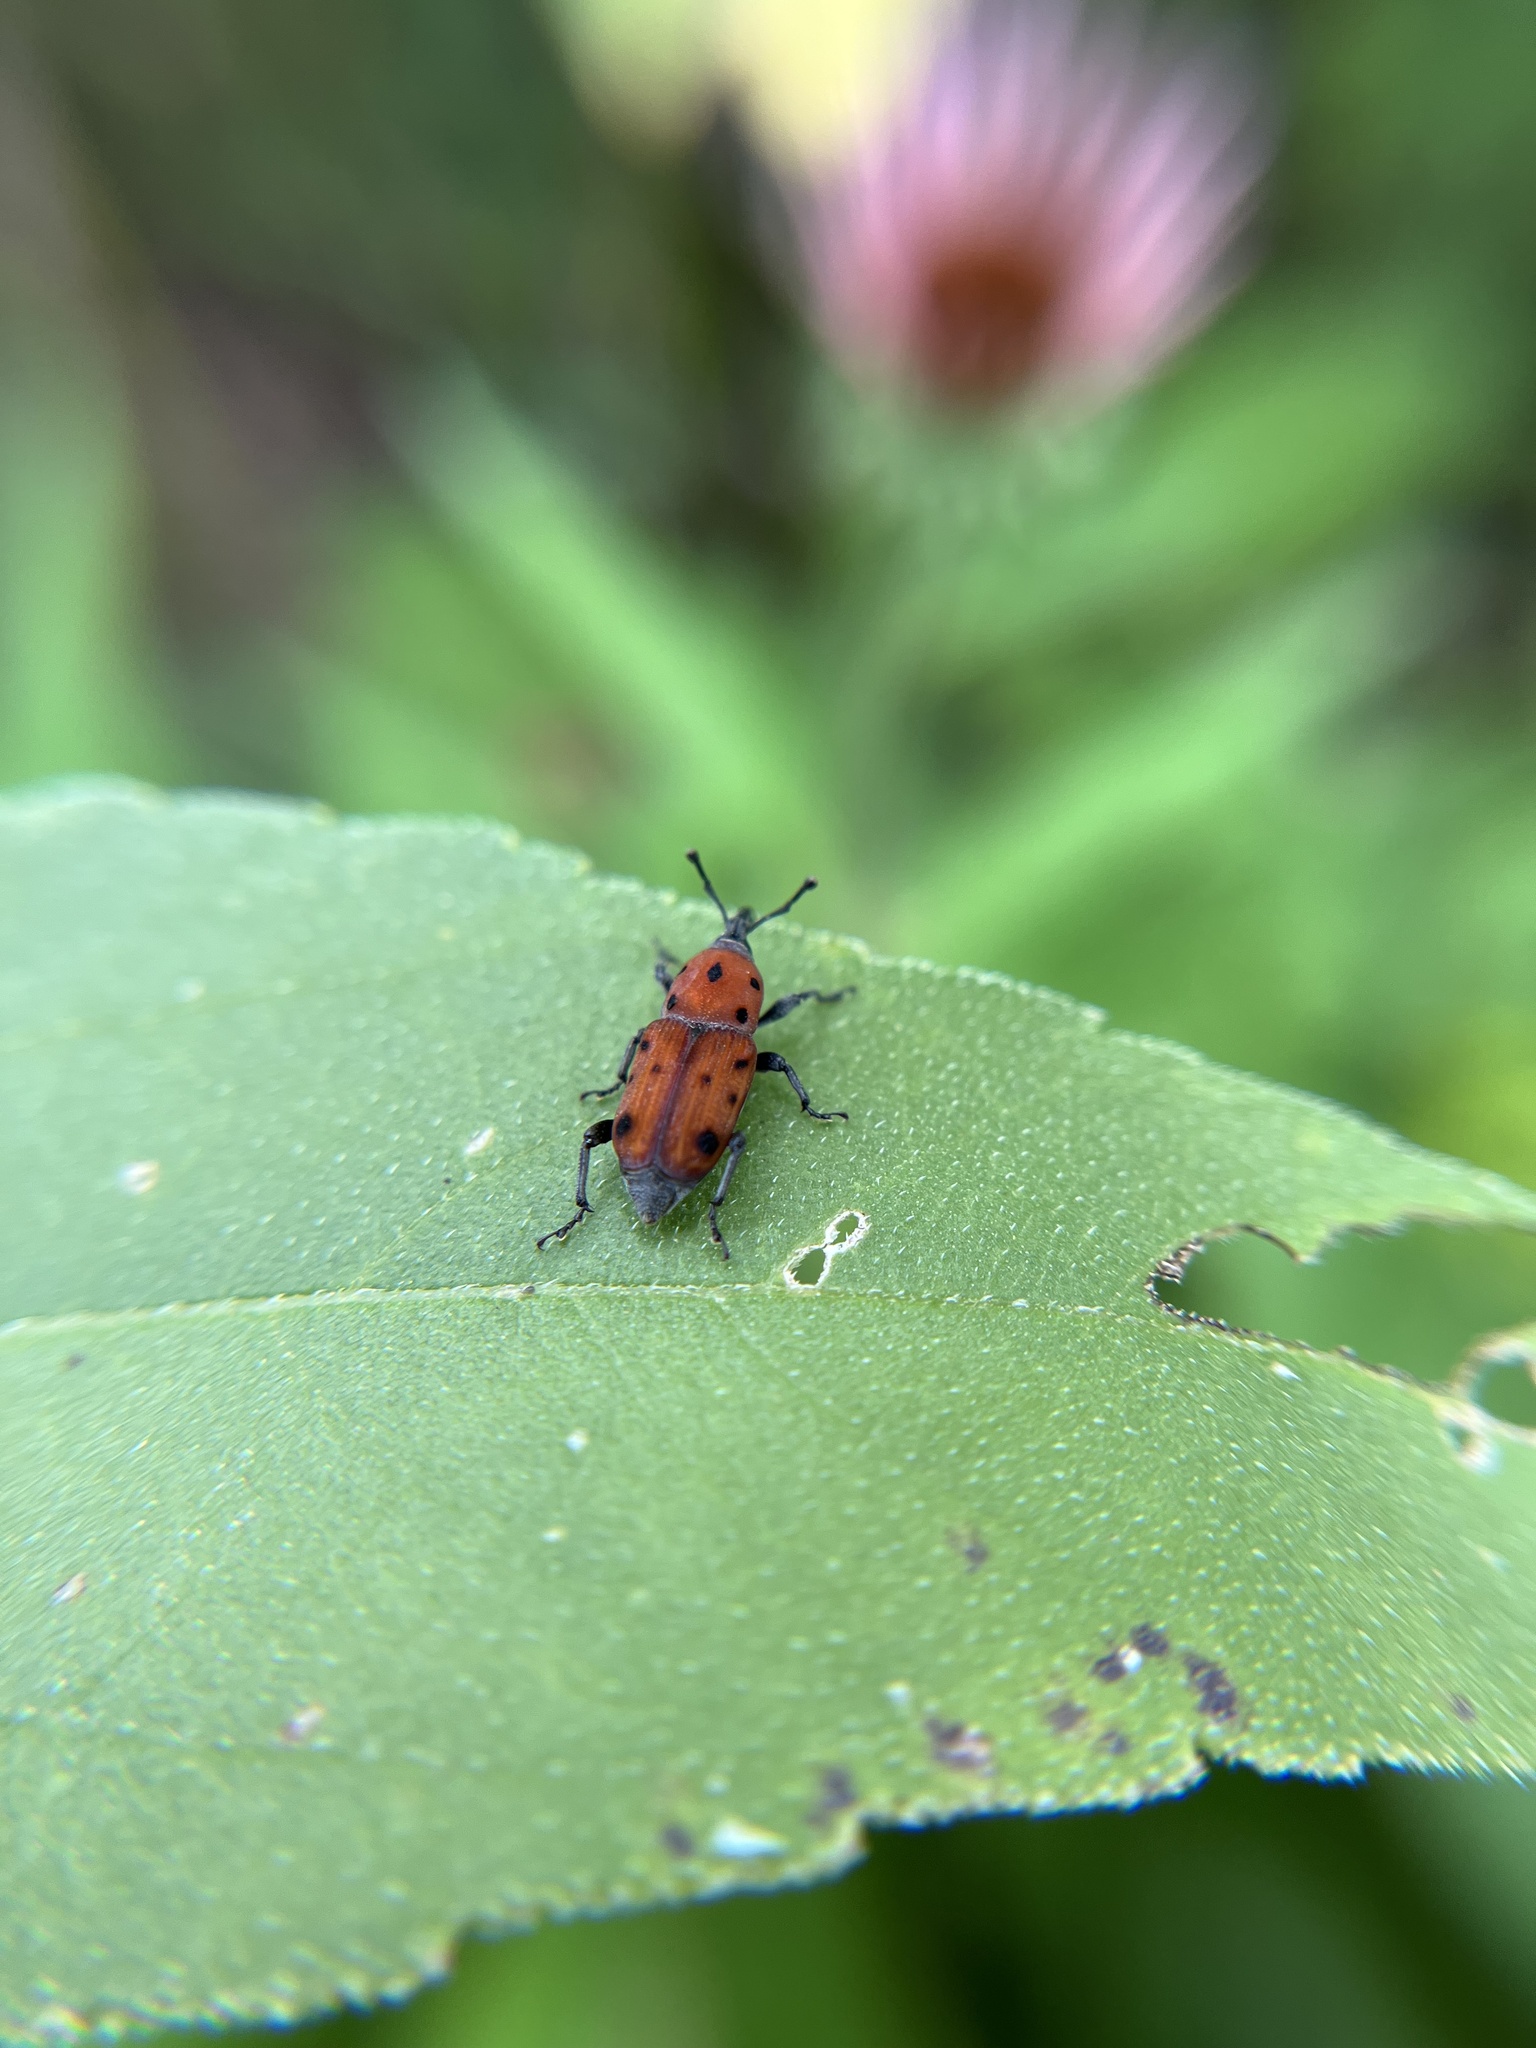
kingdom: Animalia
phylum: Arthropoda
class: Insecta
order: Coleoptera
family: Dryophthoridae
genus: Rhodobaenus
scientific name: Rhodobaenus tredecimpunctatus
